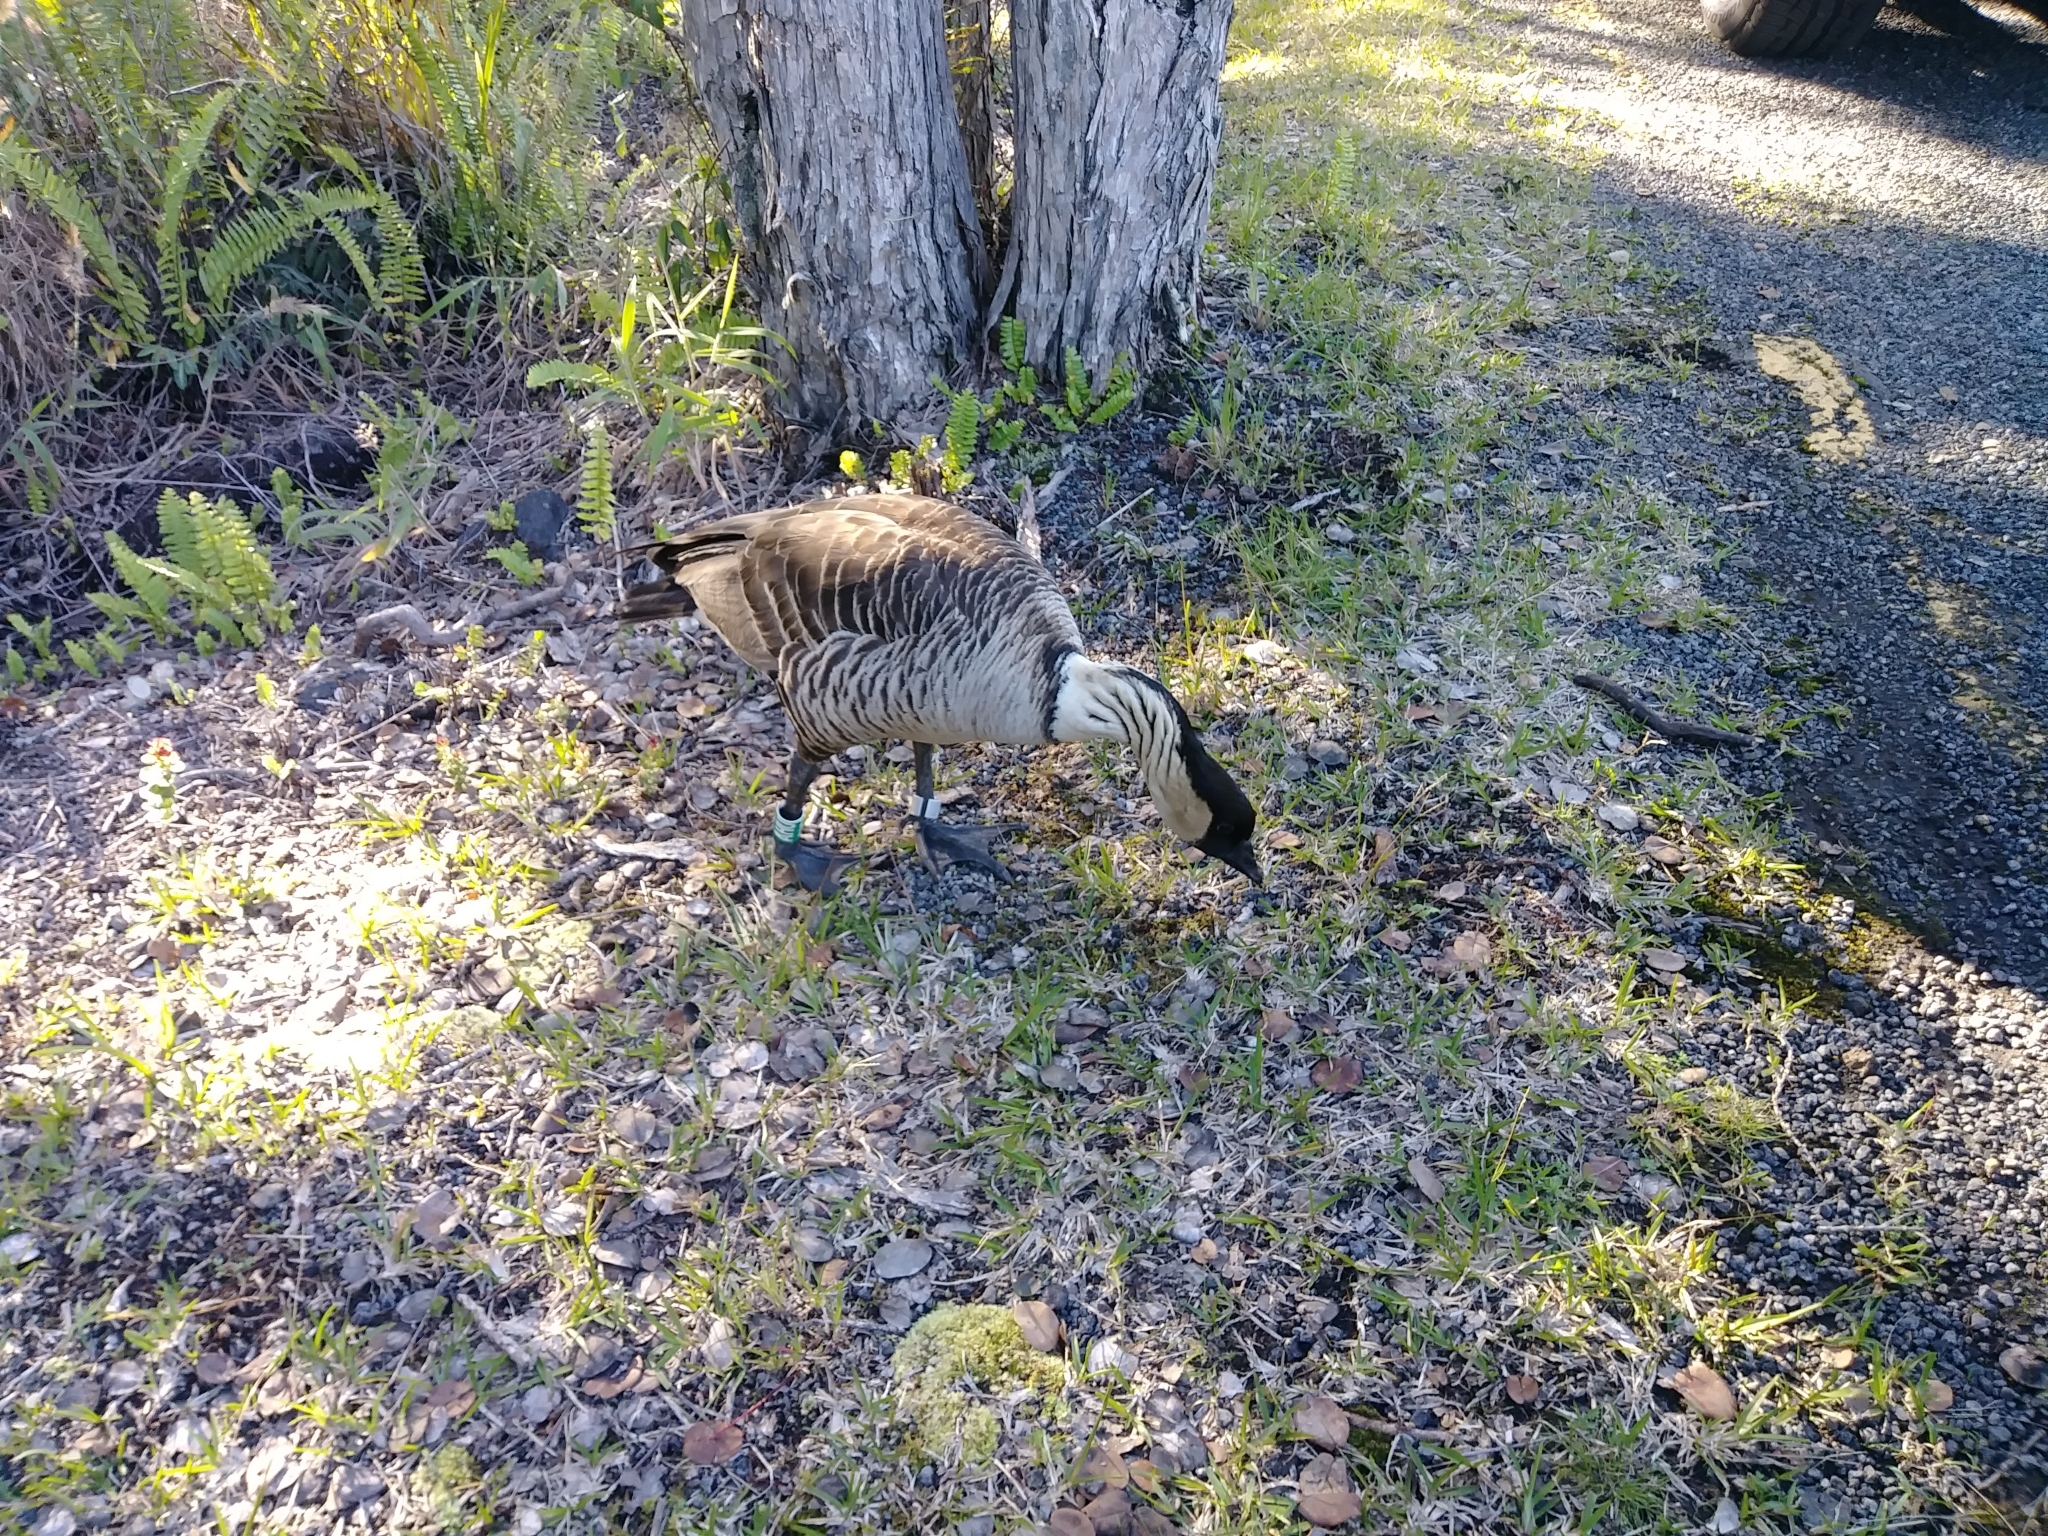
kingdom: Animalia
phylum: Chordata
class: Aves
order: Anseriformes
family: Anatidae
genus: Branta
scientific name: Branta sandvicensis
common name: Nene
